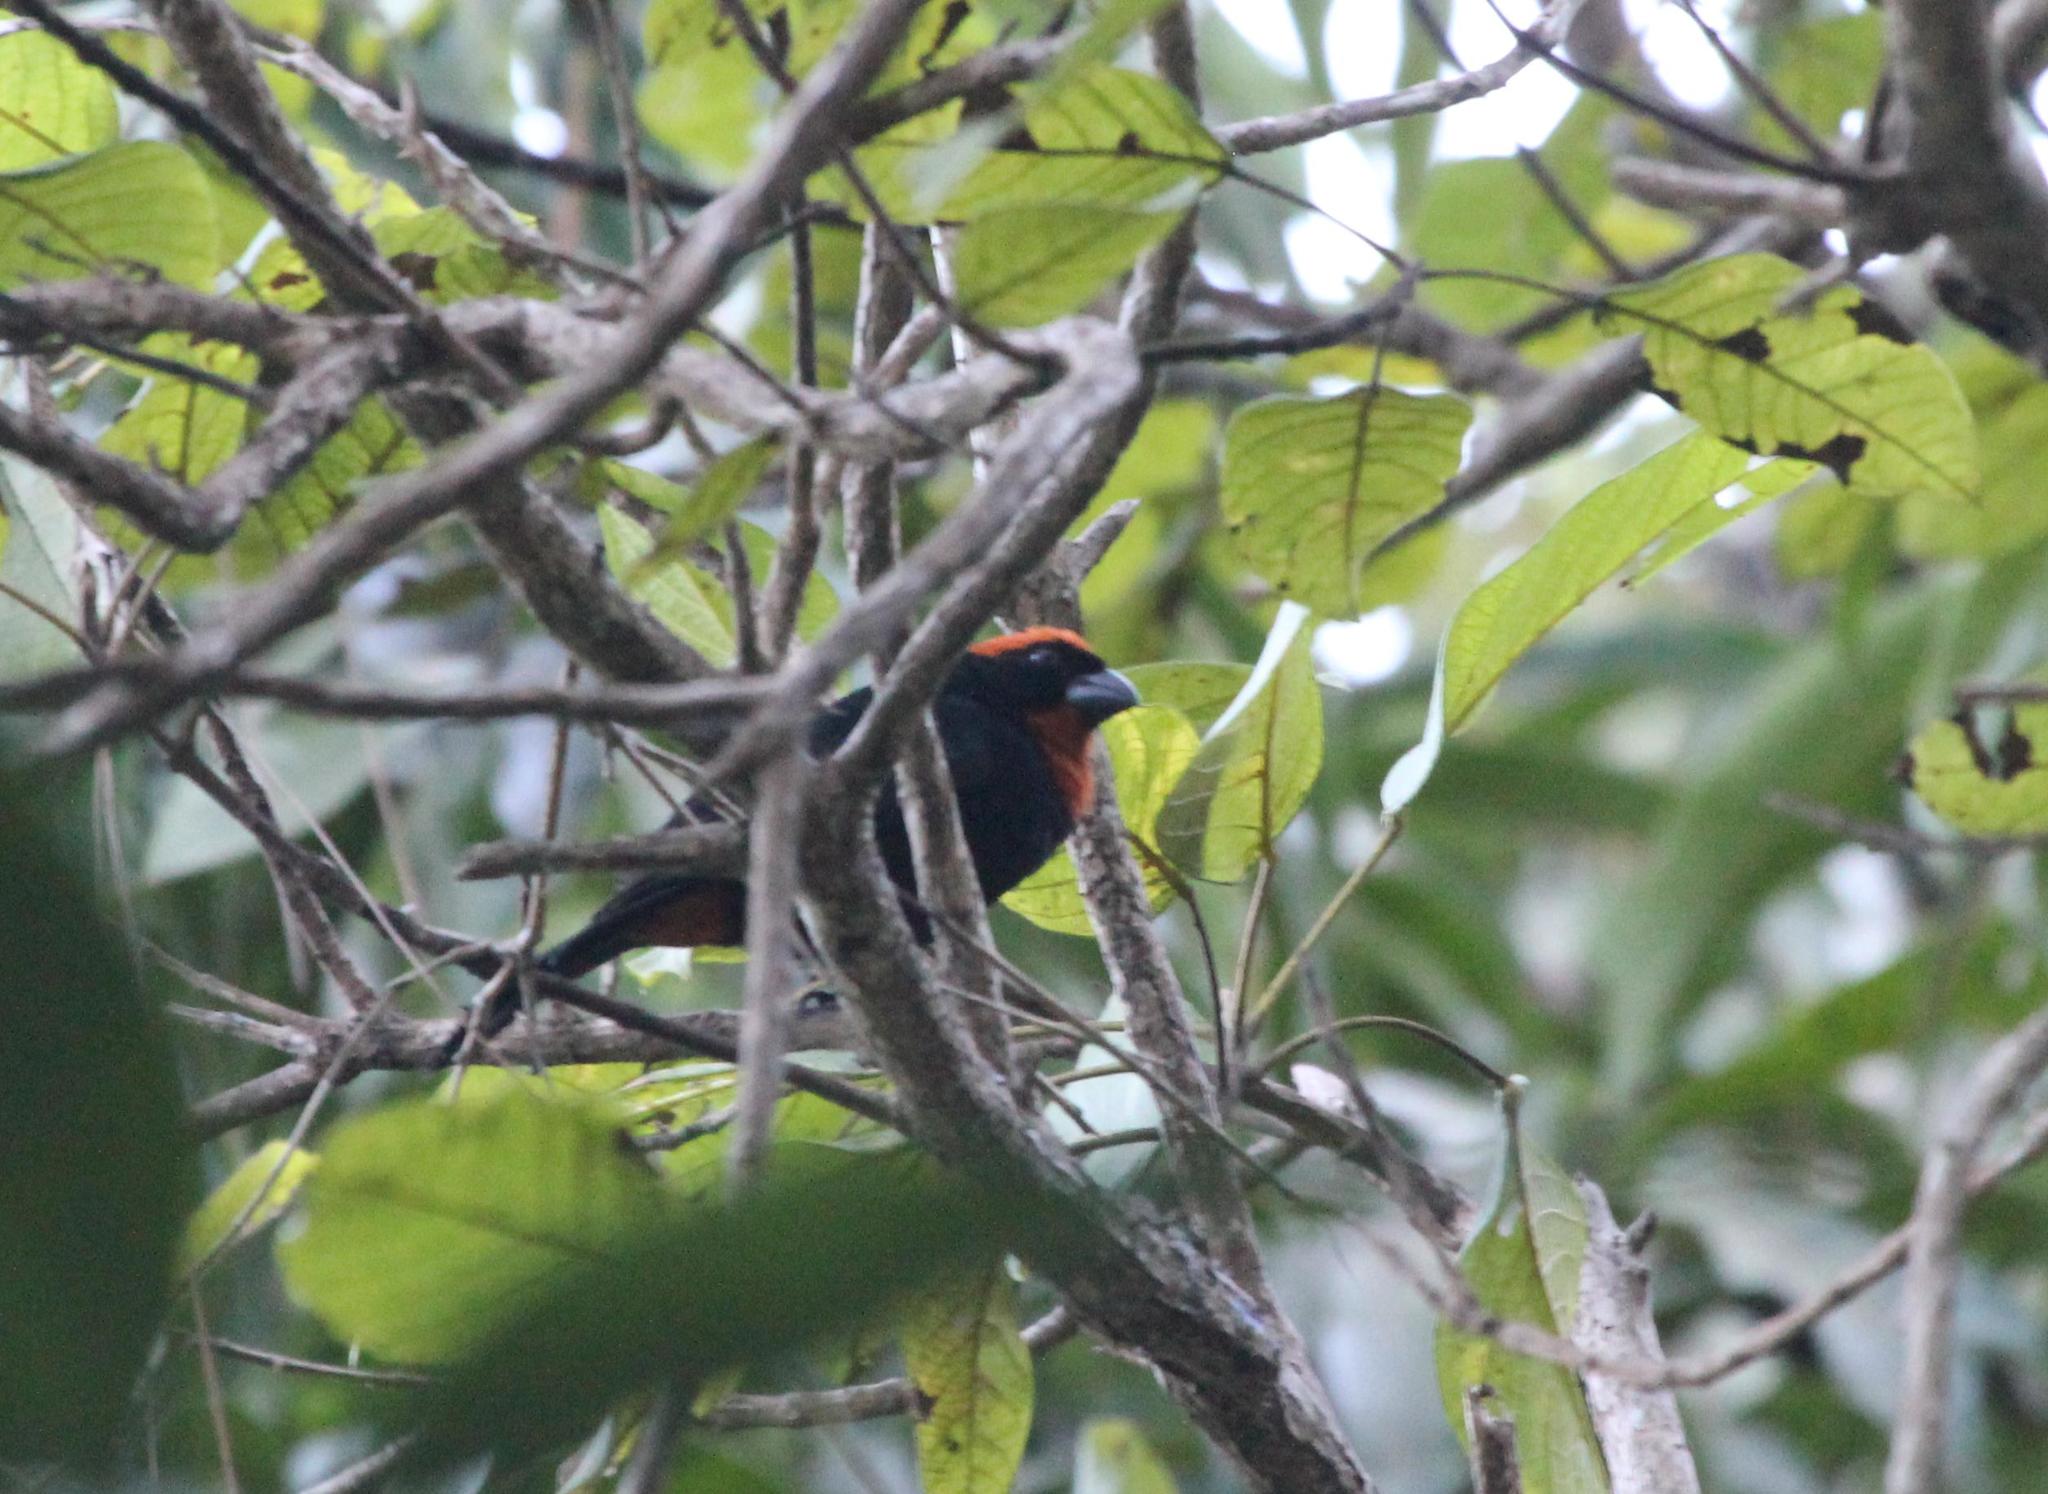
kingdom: Animalia
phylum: Chordata
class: Aves
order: Passeriformes
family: Thraupidae
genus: Melopyrrha
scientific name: Melopyrrha portoricensis
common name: Puerto rican bullfinch
